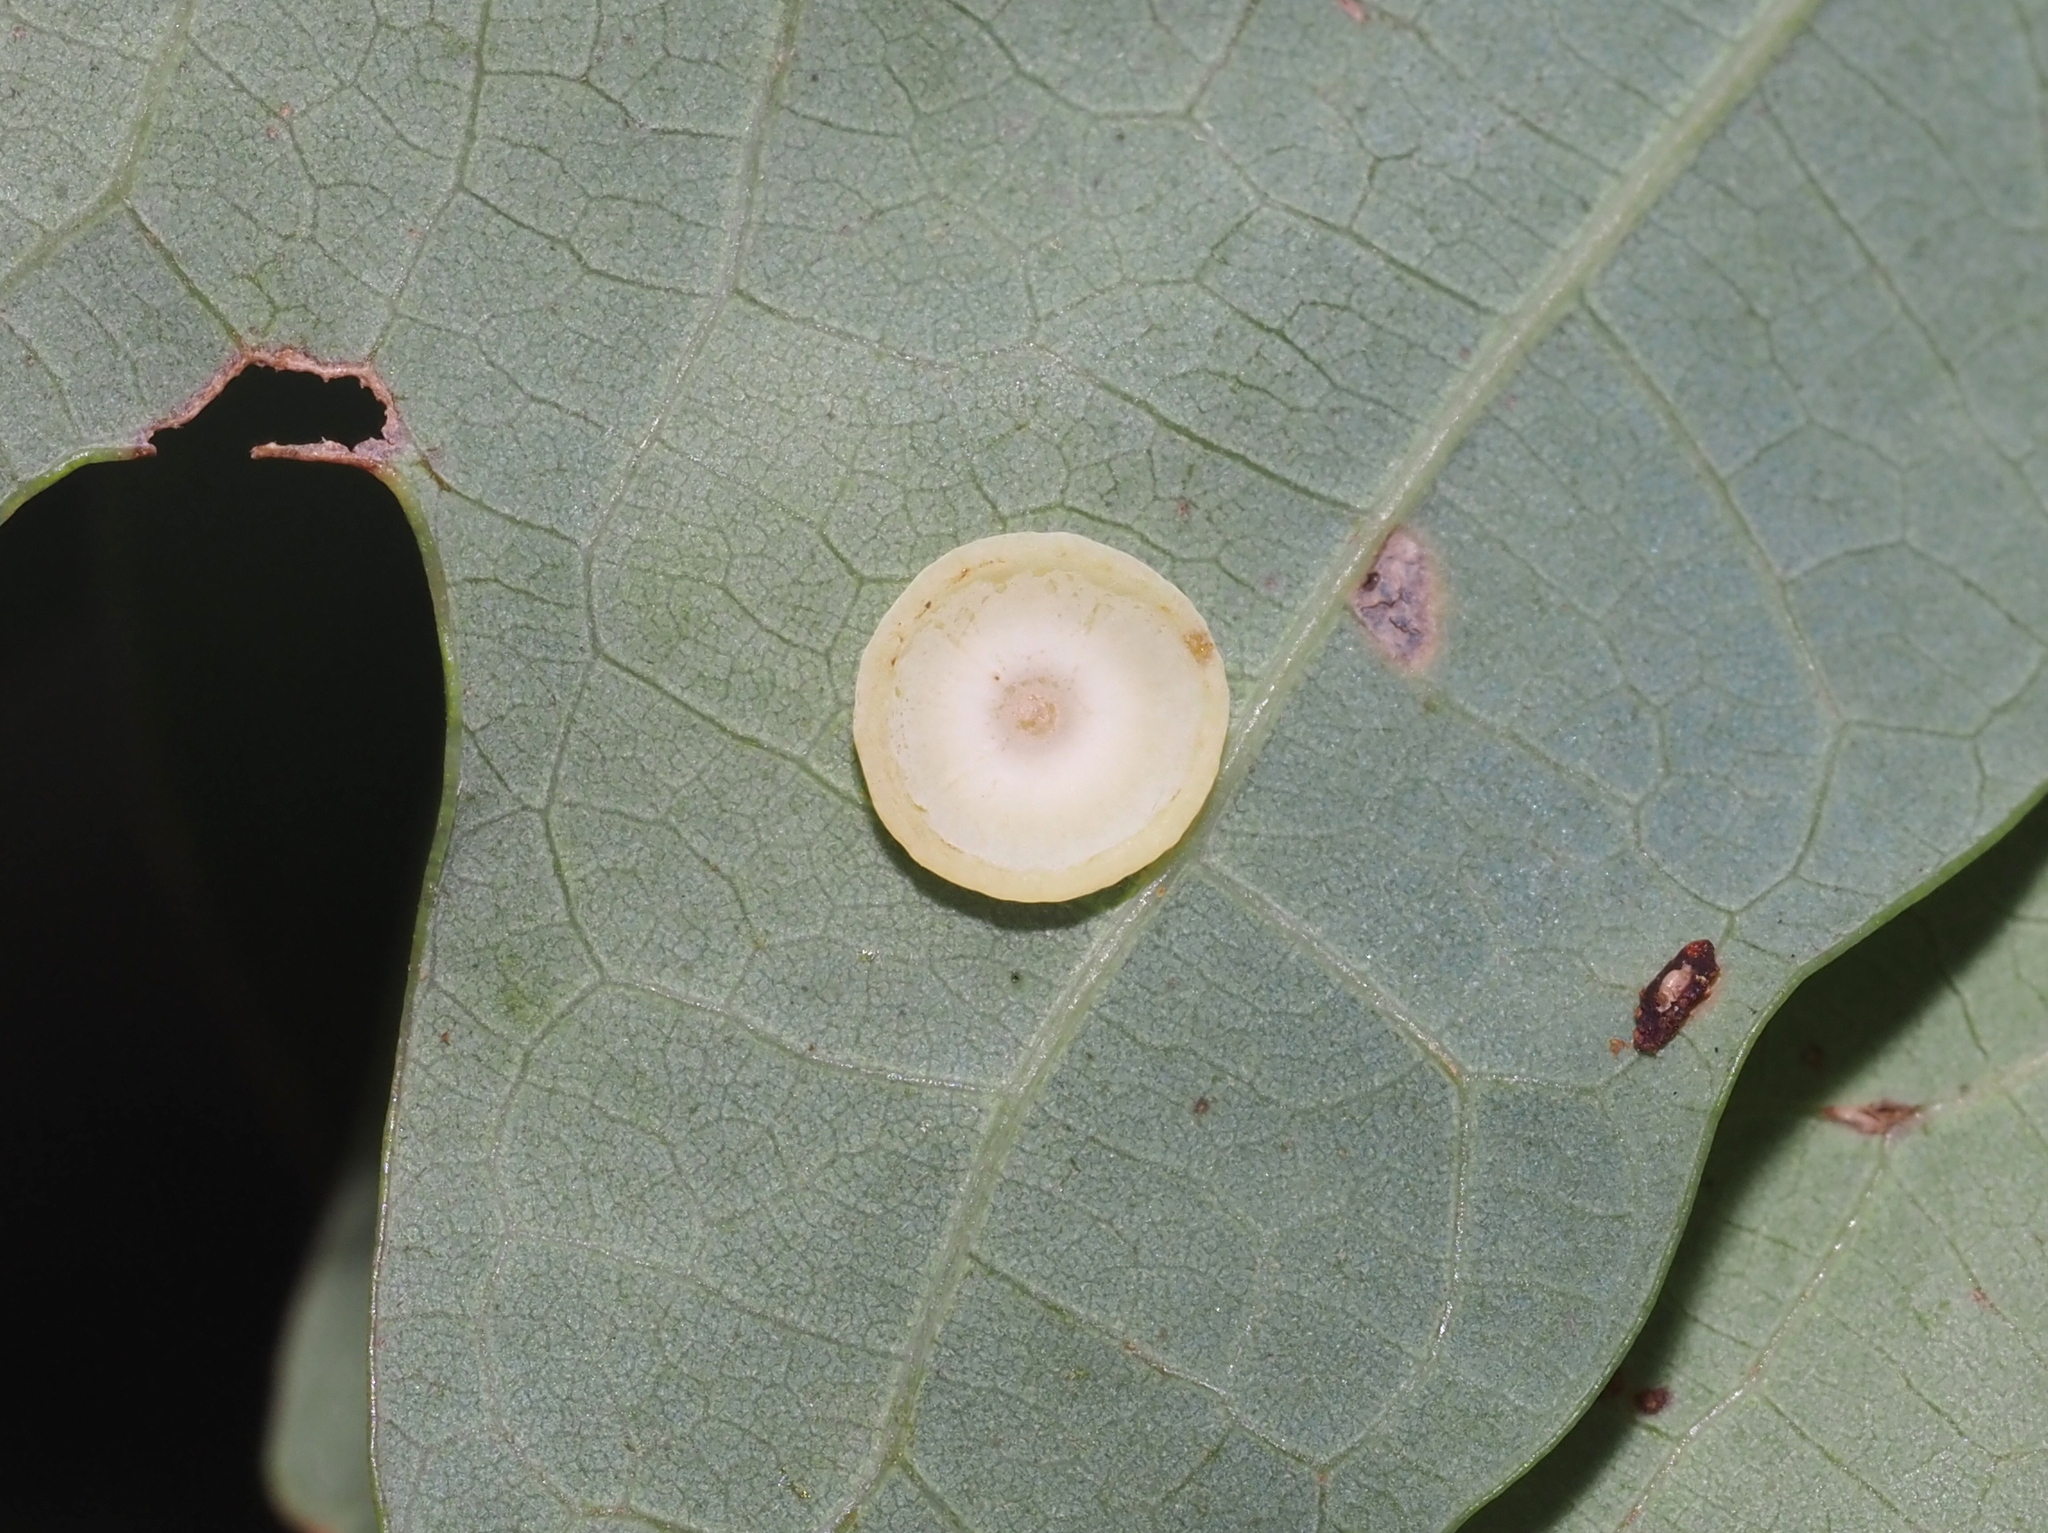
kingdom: Animalia
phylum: Arthropoda
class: Insecta
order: Hymenoptera
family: Cynipidae
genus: Phylloteras
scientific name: Phylloteras poculum
